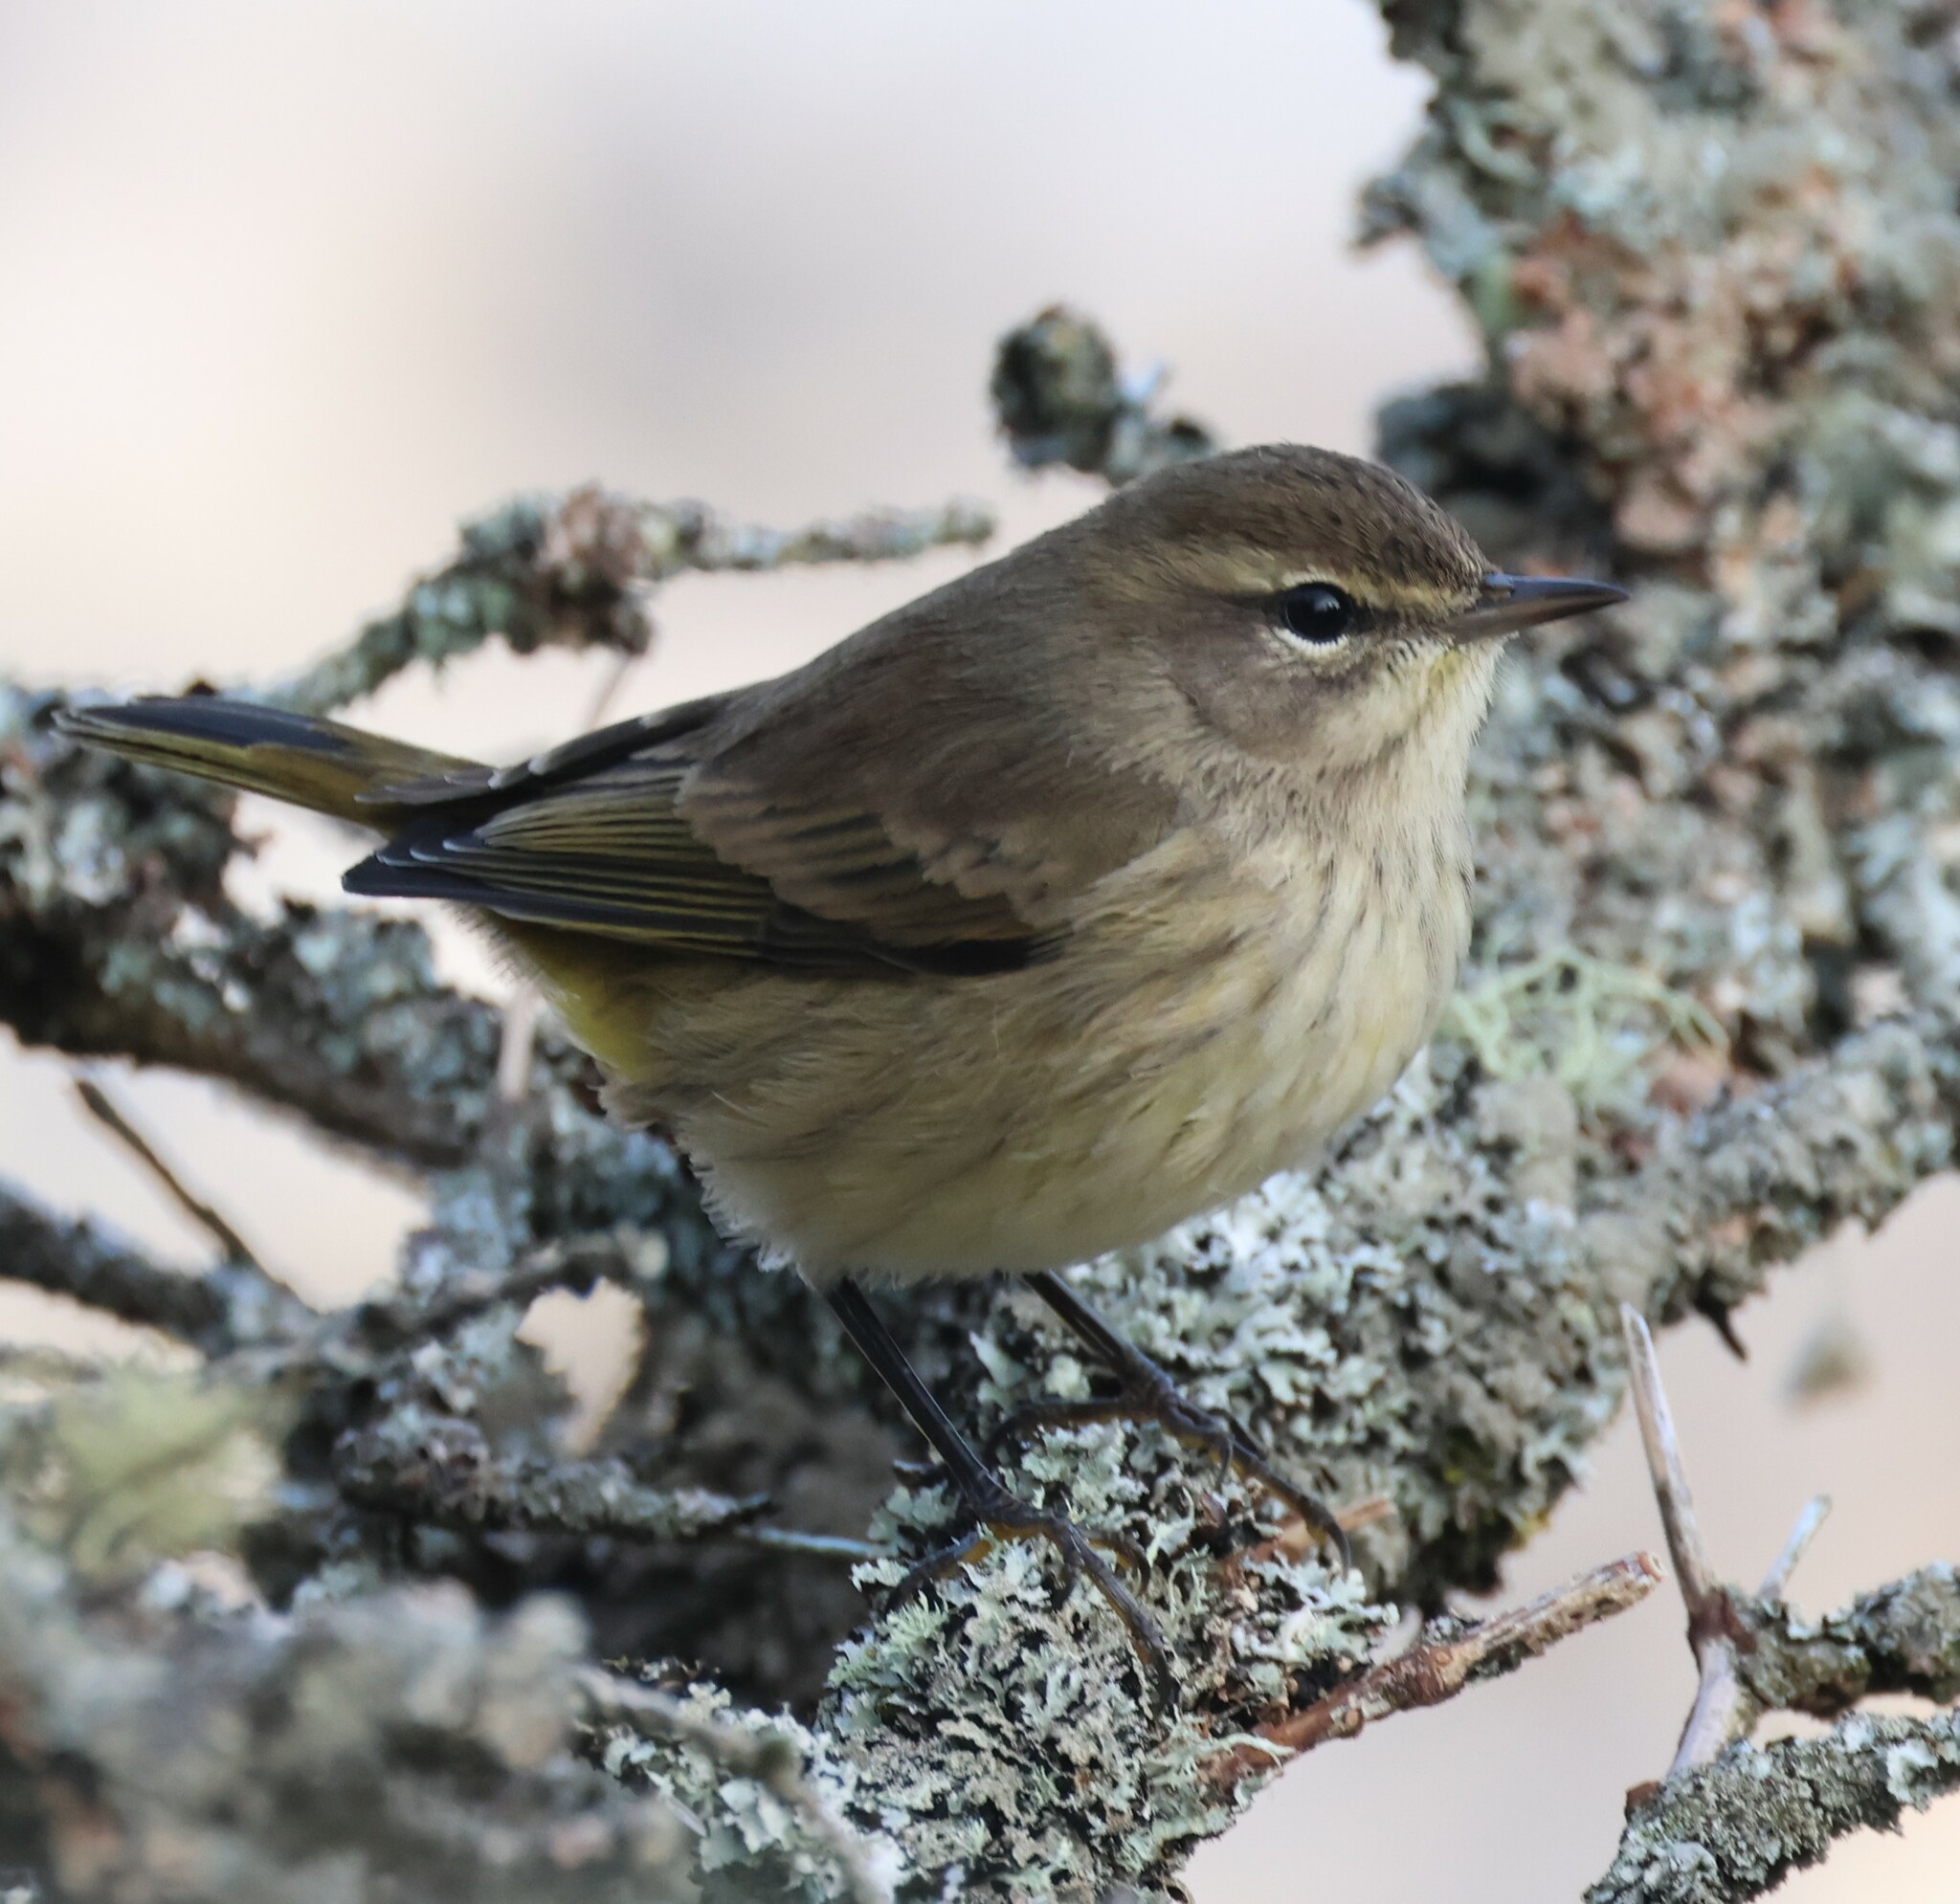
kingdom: Animalia
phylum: Chordata
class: Aves
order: Passeriformes
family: Parulidae
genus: Setophaga
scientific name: Setophaga palmarum
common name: Palm warbler
